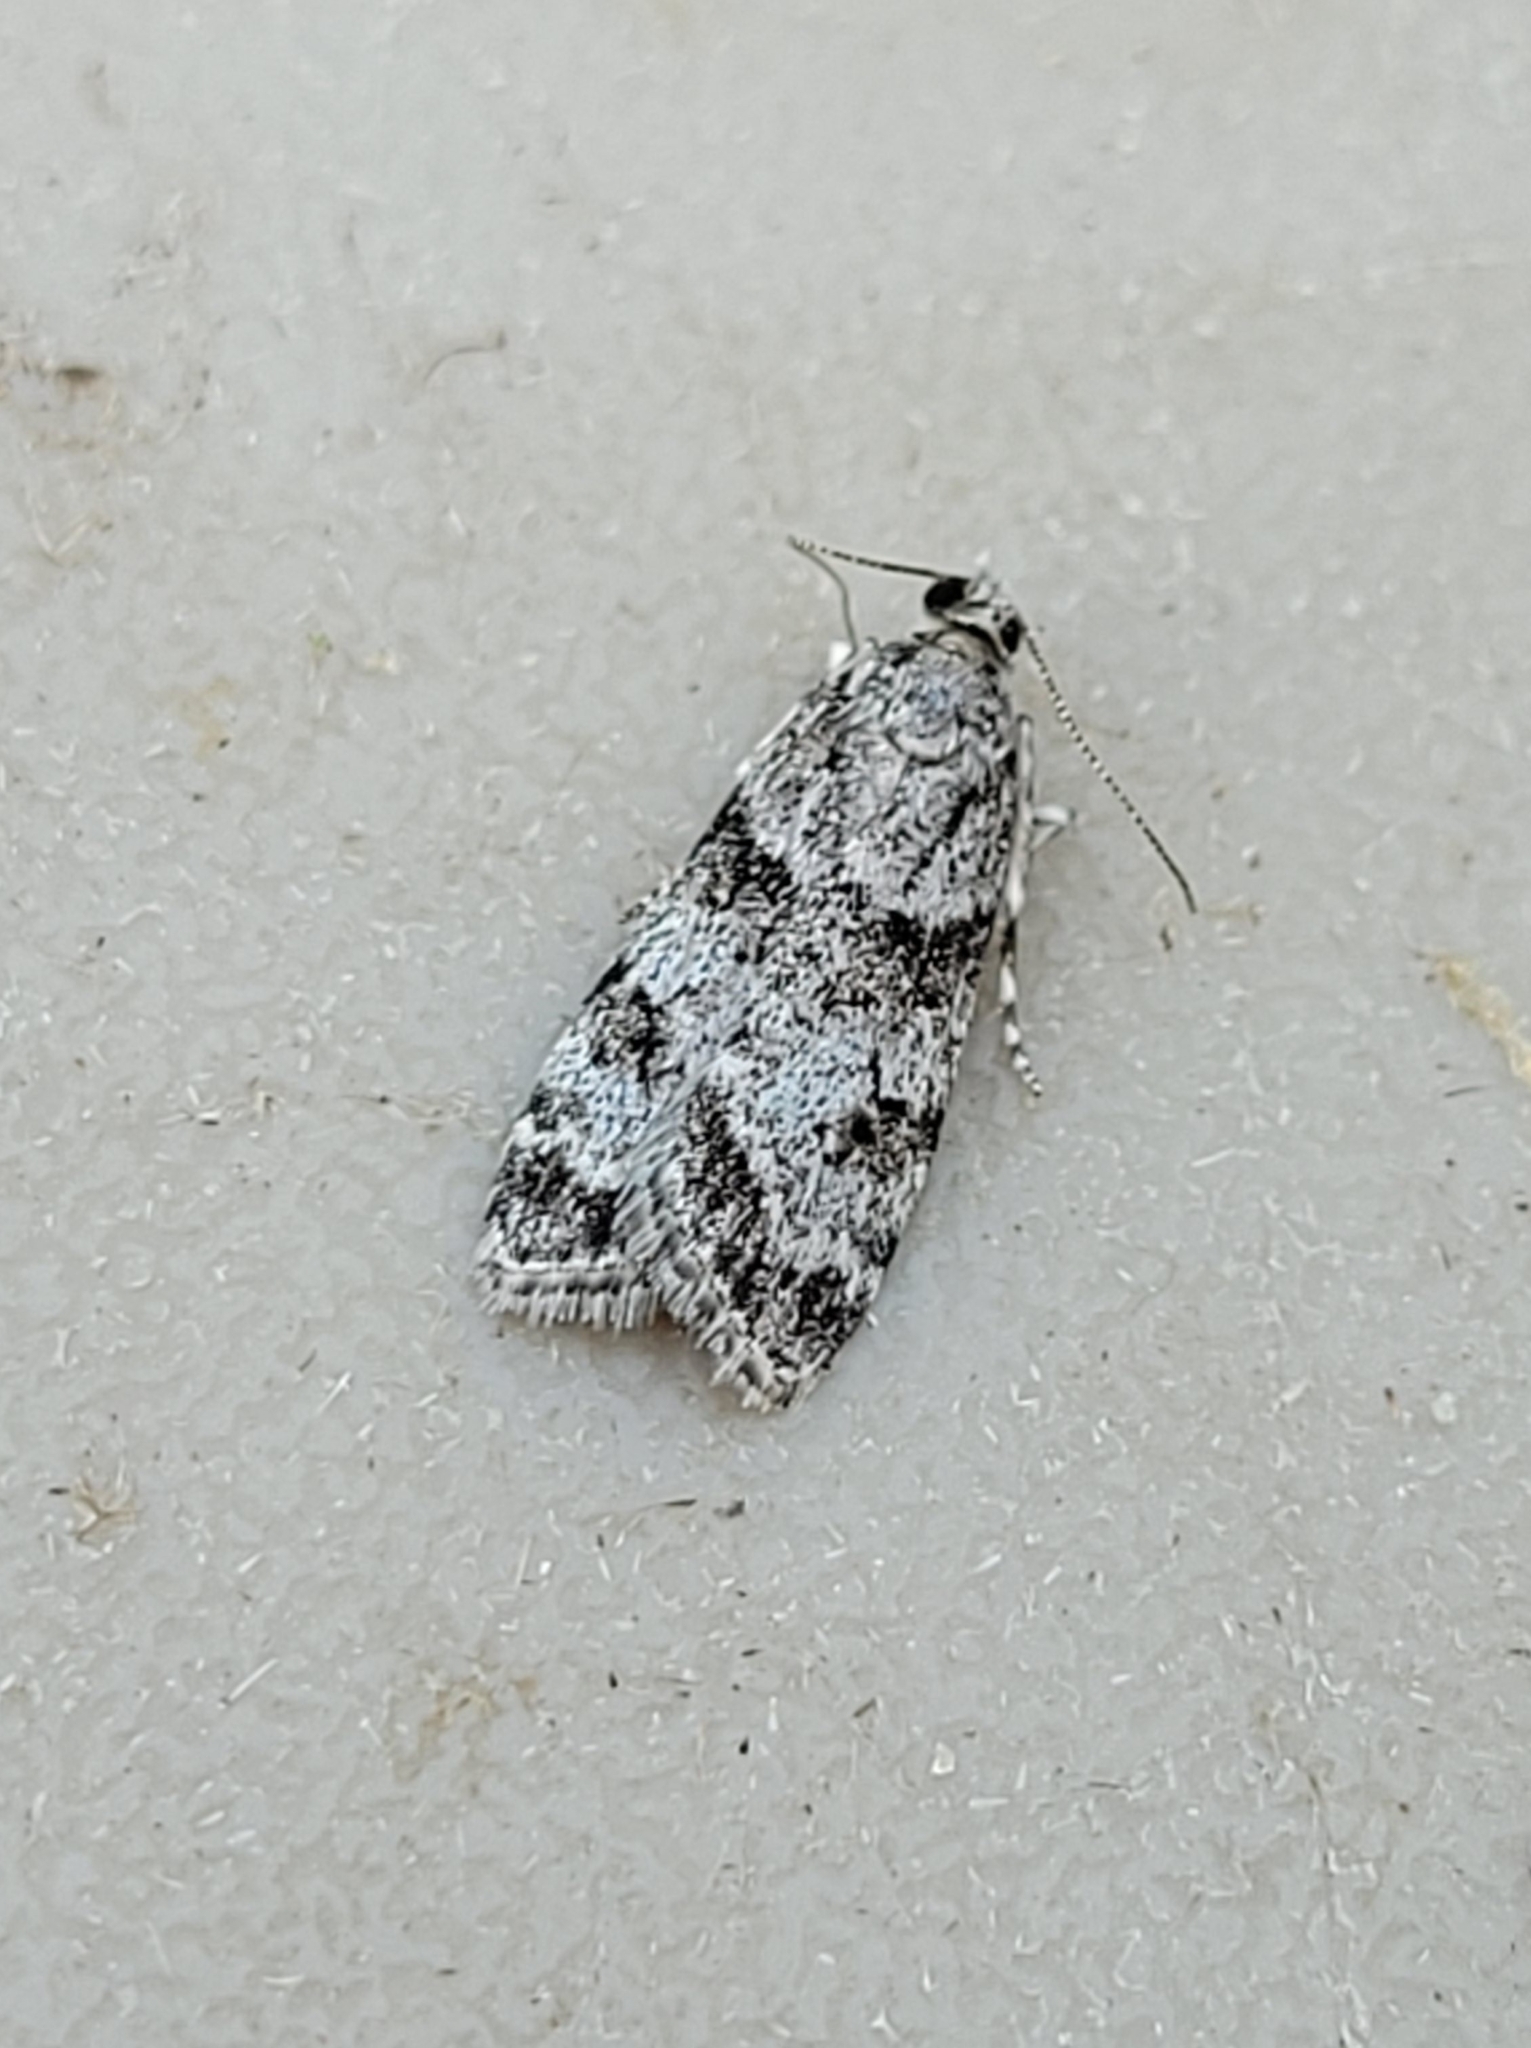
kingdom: Animalia
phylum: Arthropoda
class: Insecta
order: Lepidoptera
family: Crambidae
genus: Scoparia
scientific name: Scoparia biplagialis
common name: Double-striped scoparia moth
